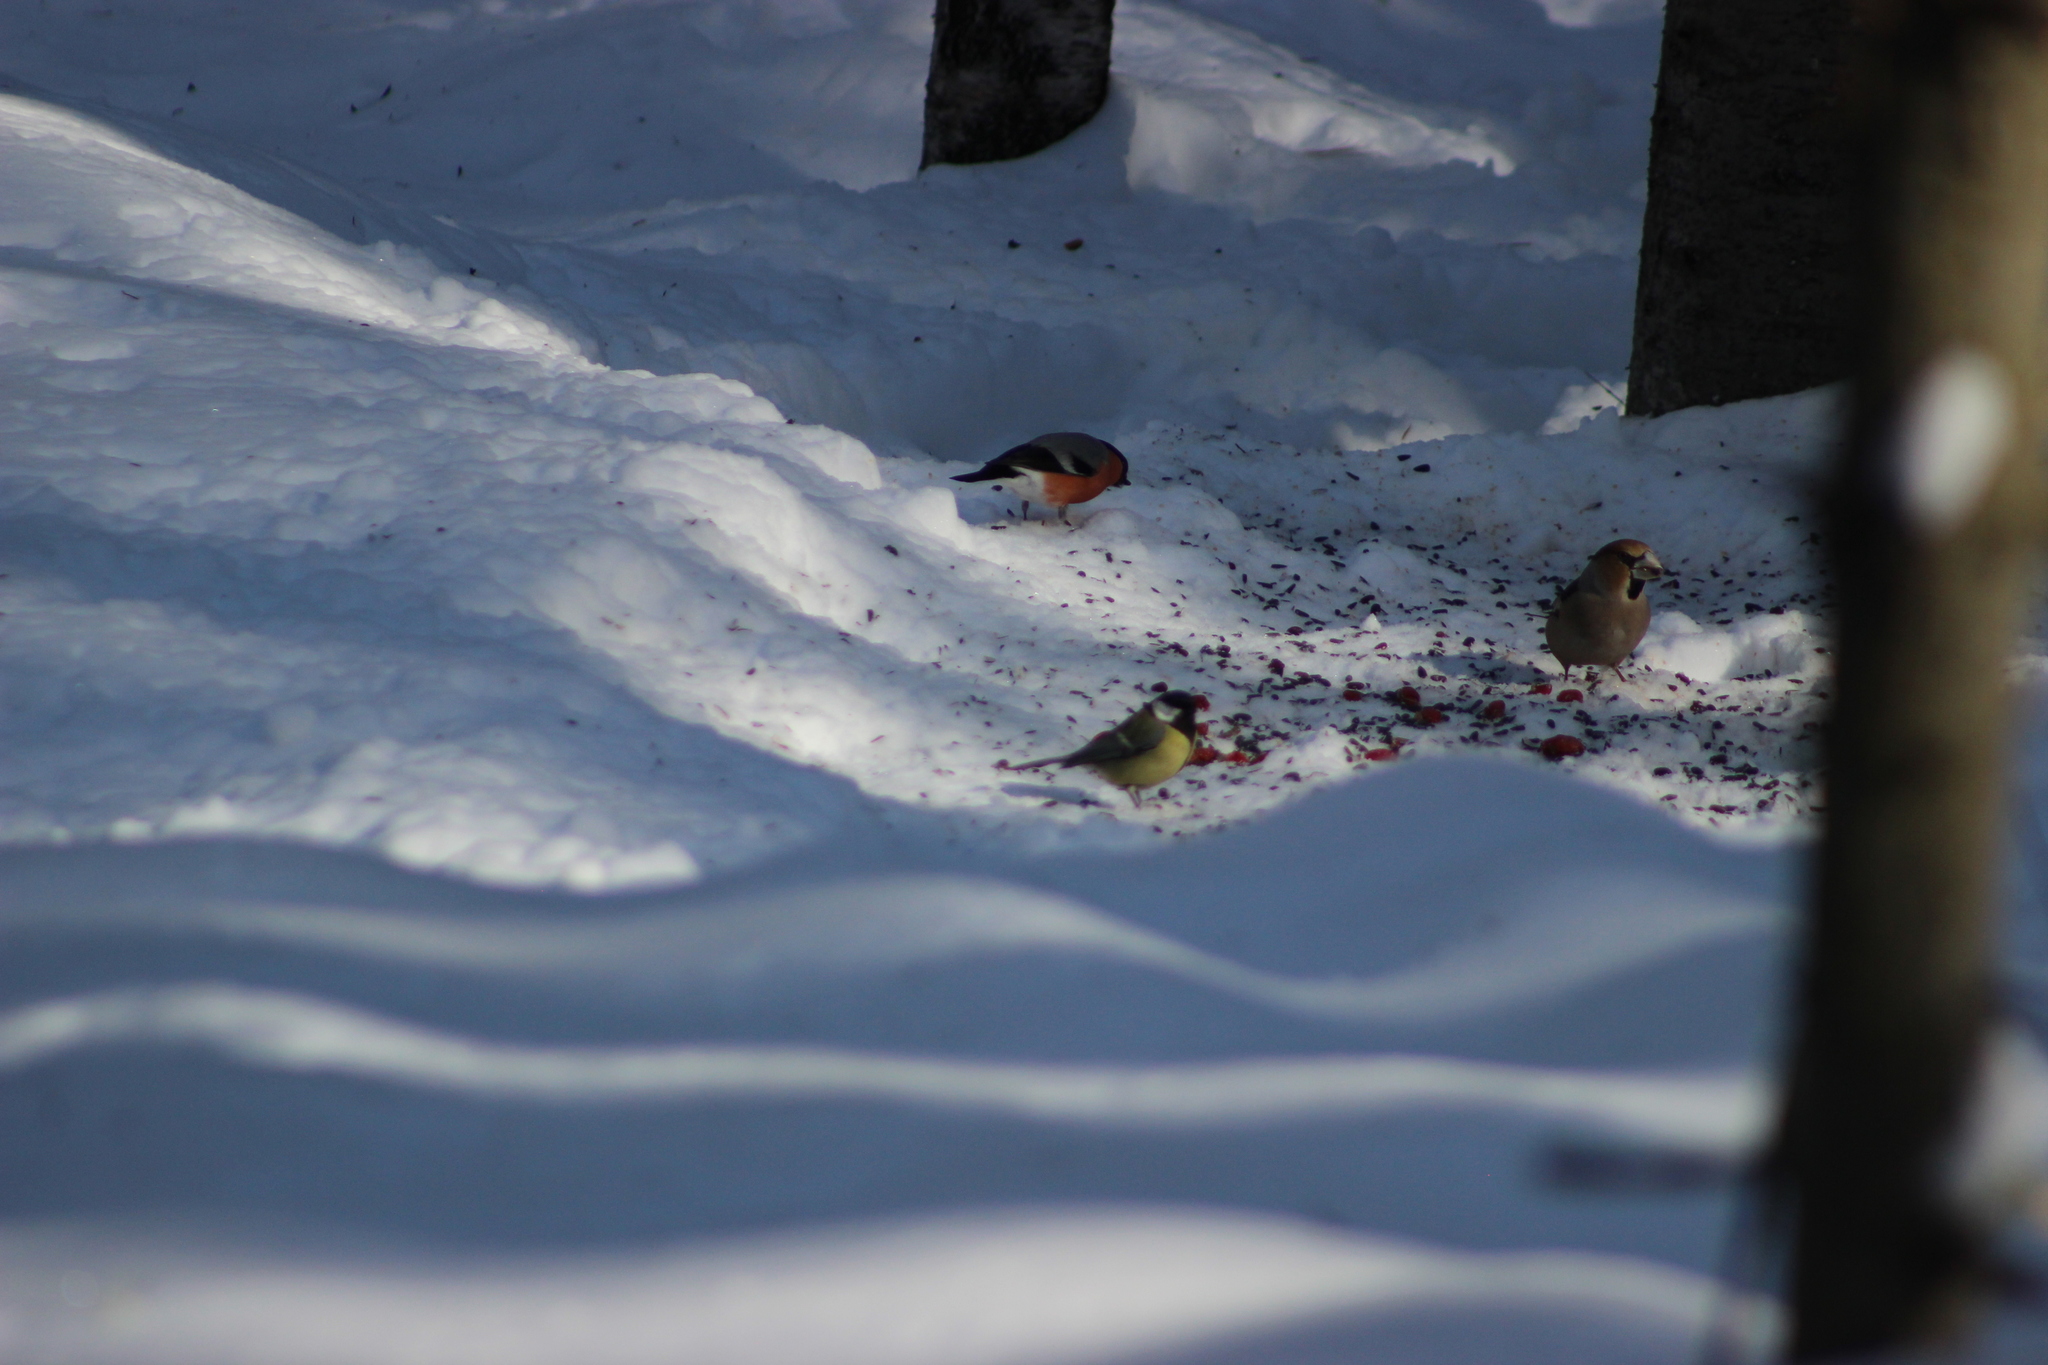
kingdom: Animalia
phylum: Chordata
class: Aves
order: Passeriformes
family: Fringillidae
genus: Pyrrhula
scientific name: Pyrrhula pyrrhula
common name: Eurasian bullfinch
